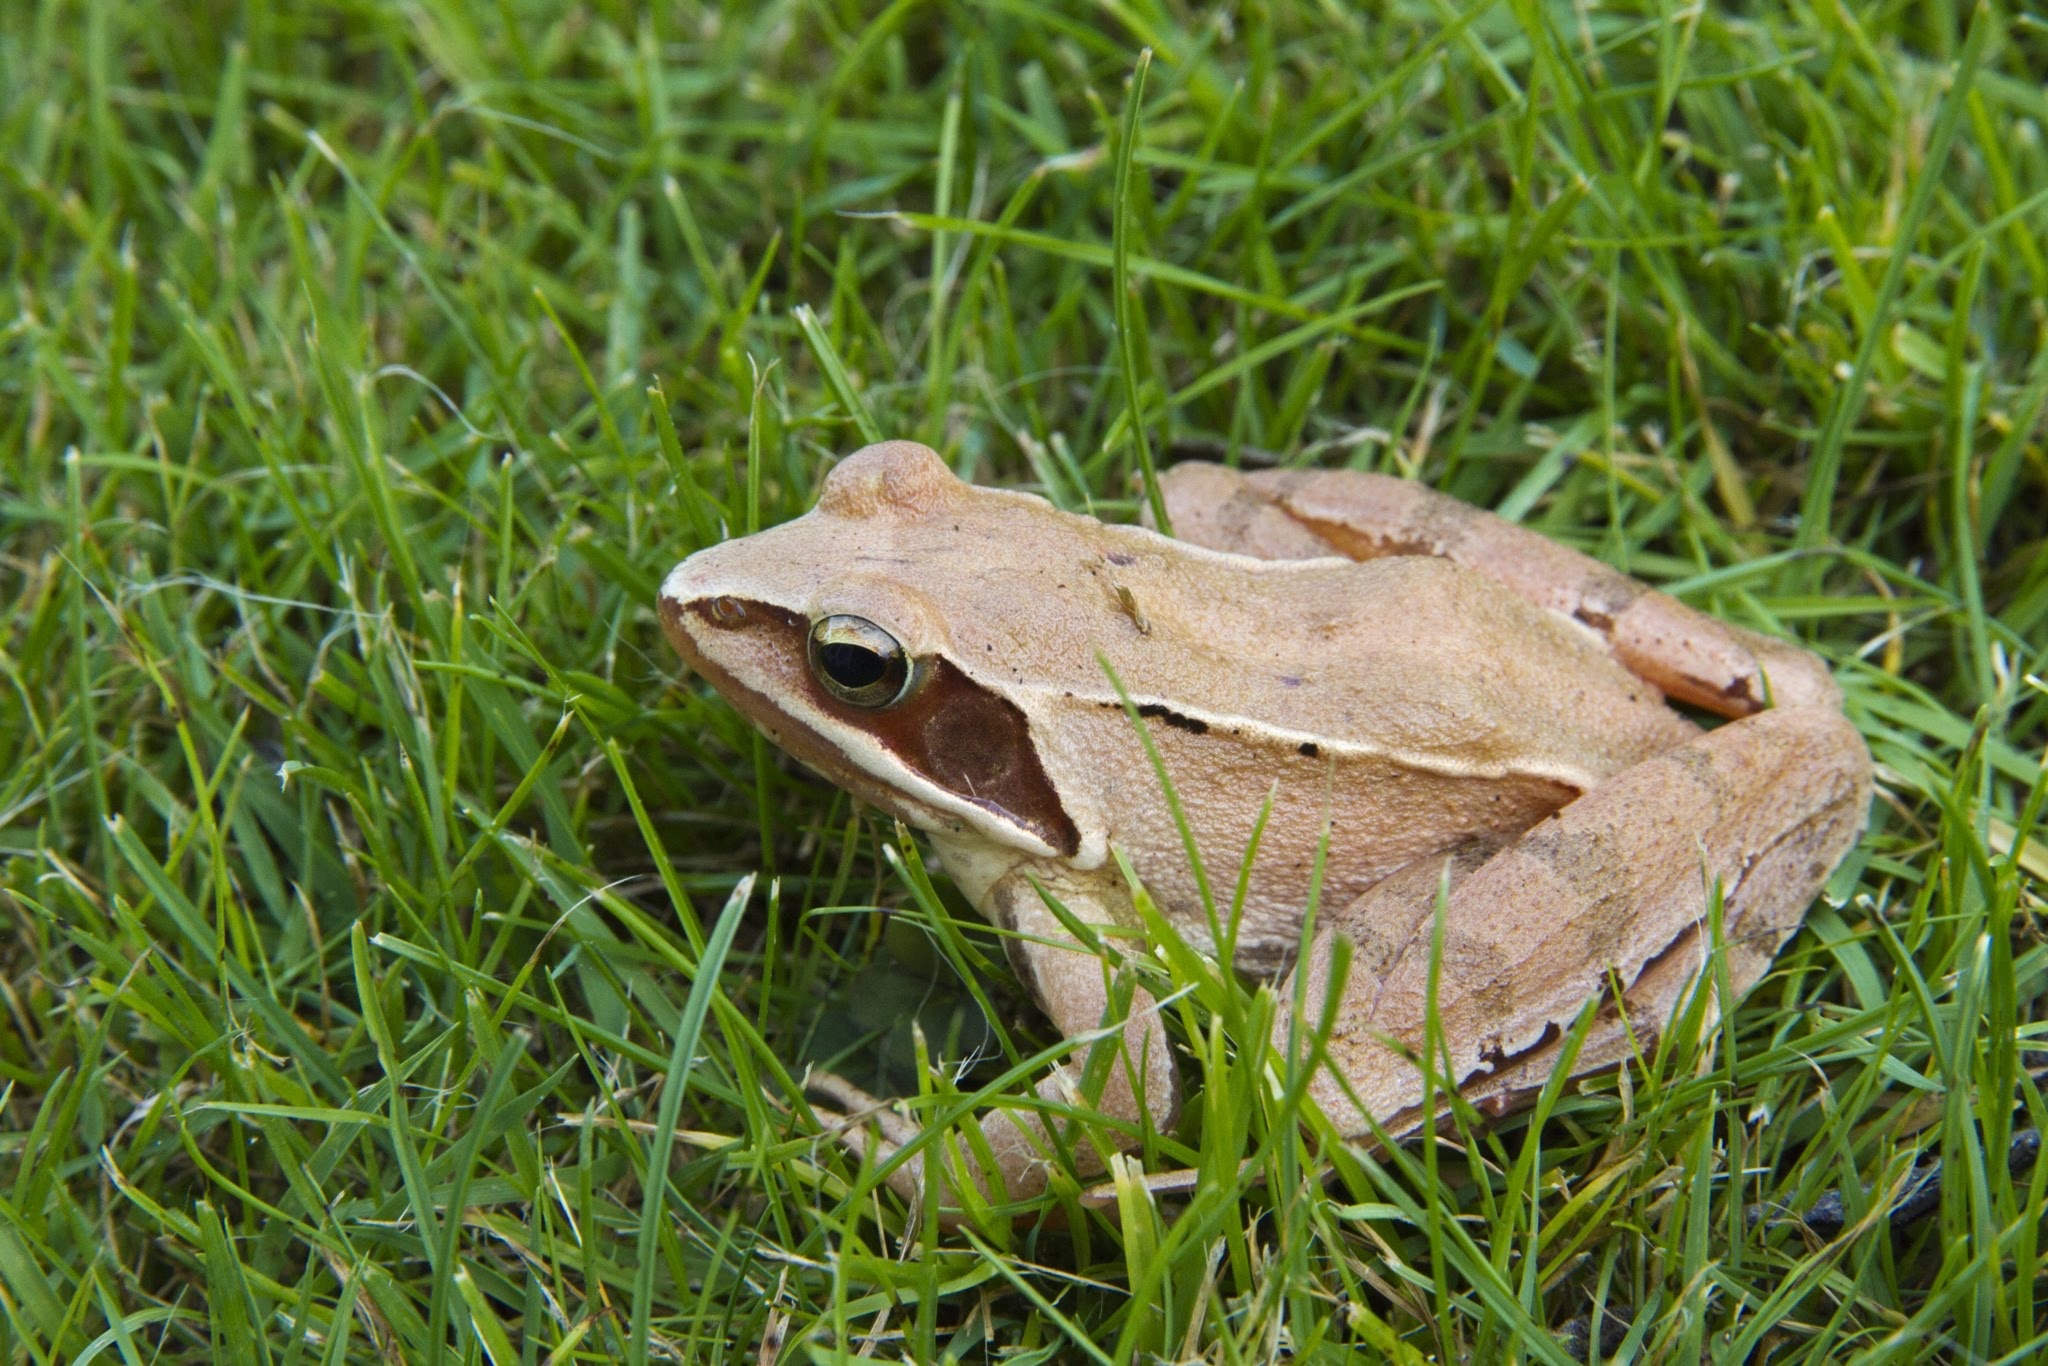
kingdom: Animalia
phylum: Chordata
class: Amphibia
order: Anura
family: Ranidae
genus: Rana
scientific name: Rana dalmatina
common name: Agile frog
